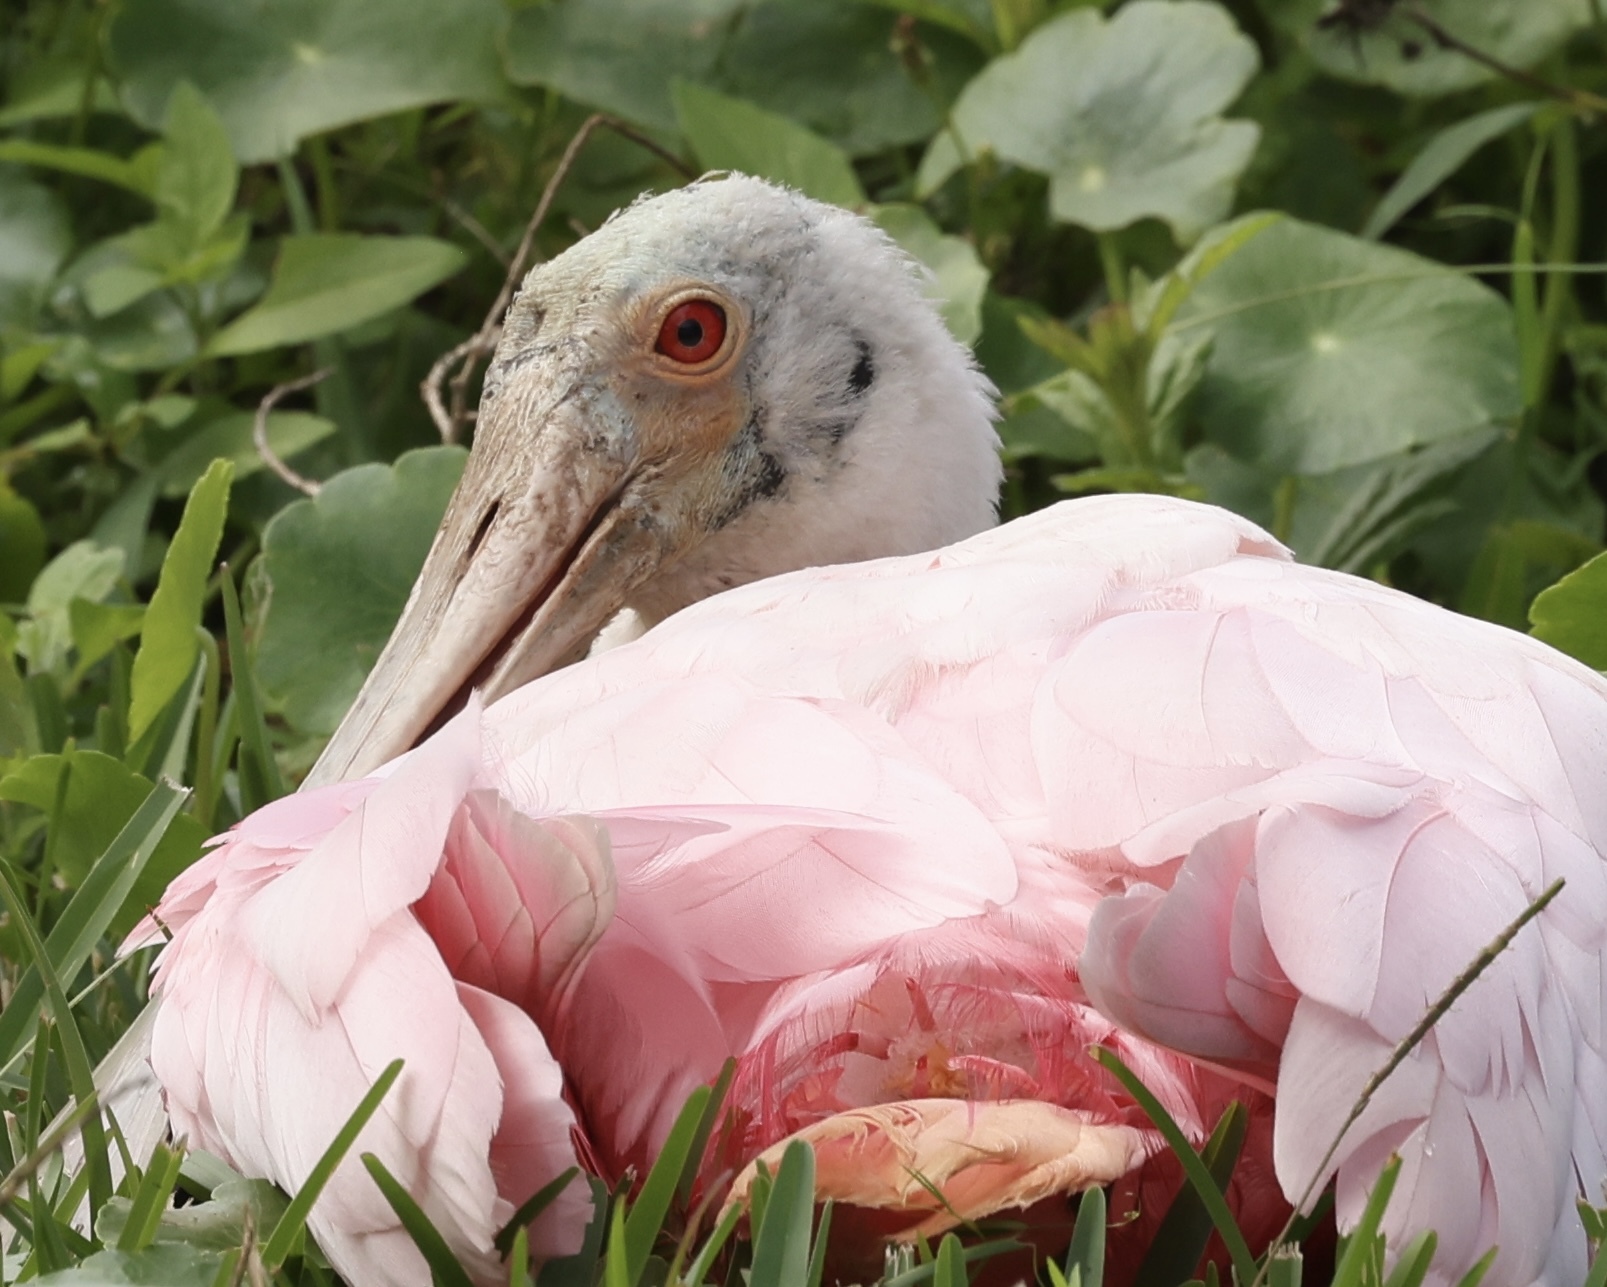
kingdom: Animalia
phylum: Chordata
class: Aves
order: Pelecaniformes
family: Threskiornithidae
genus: Platalea
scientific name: Platalea ajaja
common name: Roseate spoonbill
